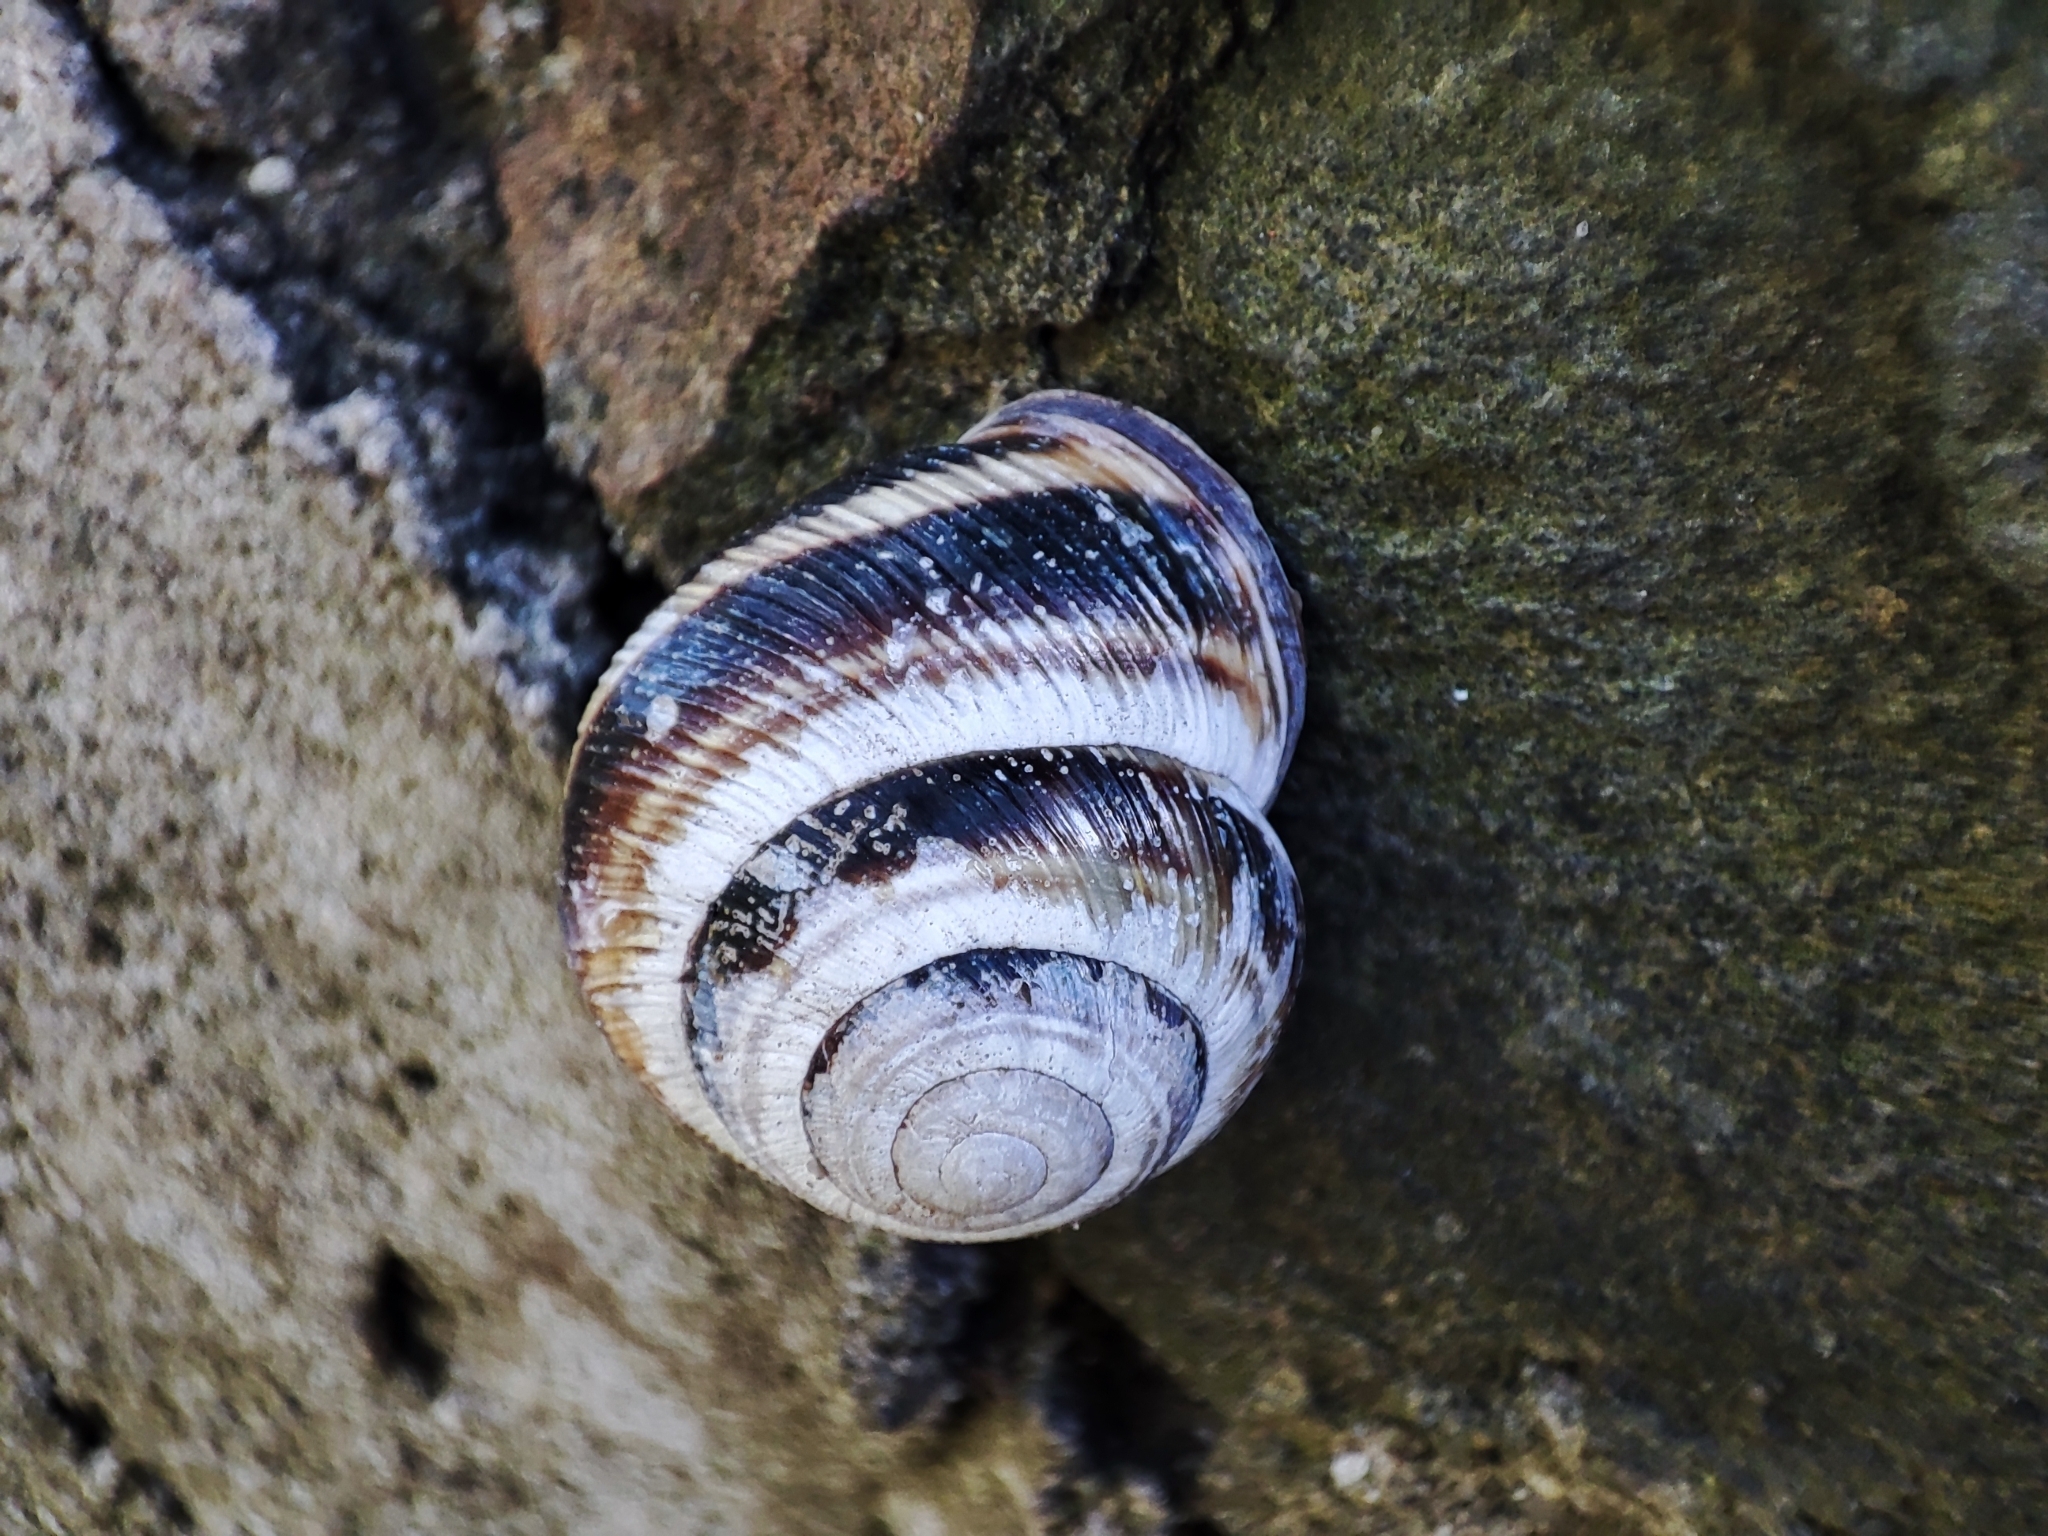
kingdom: Animalia
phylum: Mollusca
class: Gastropoda
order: Stylommatophora
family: Helicidae
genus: Caucasotachea
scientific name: Caucasotachea vindobonensis
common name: European helicid land snail
